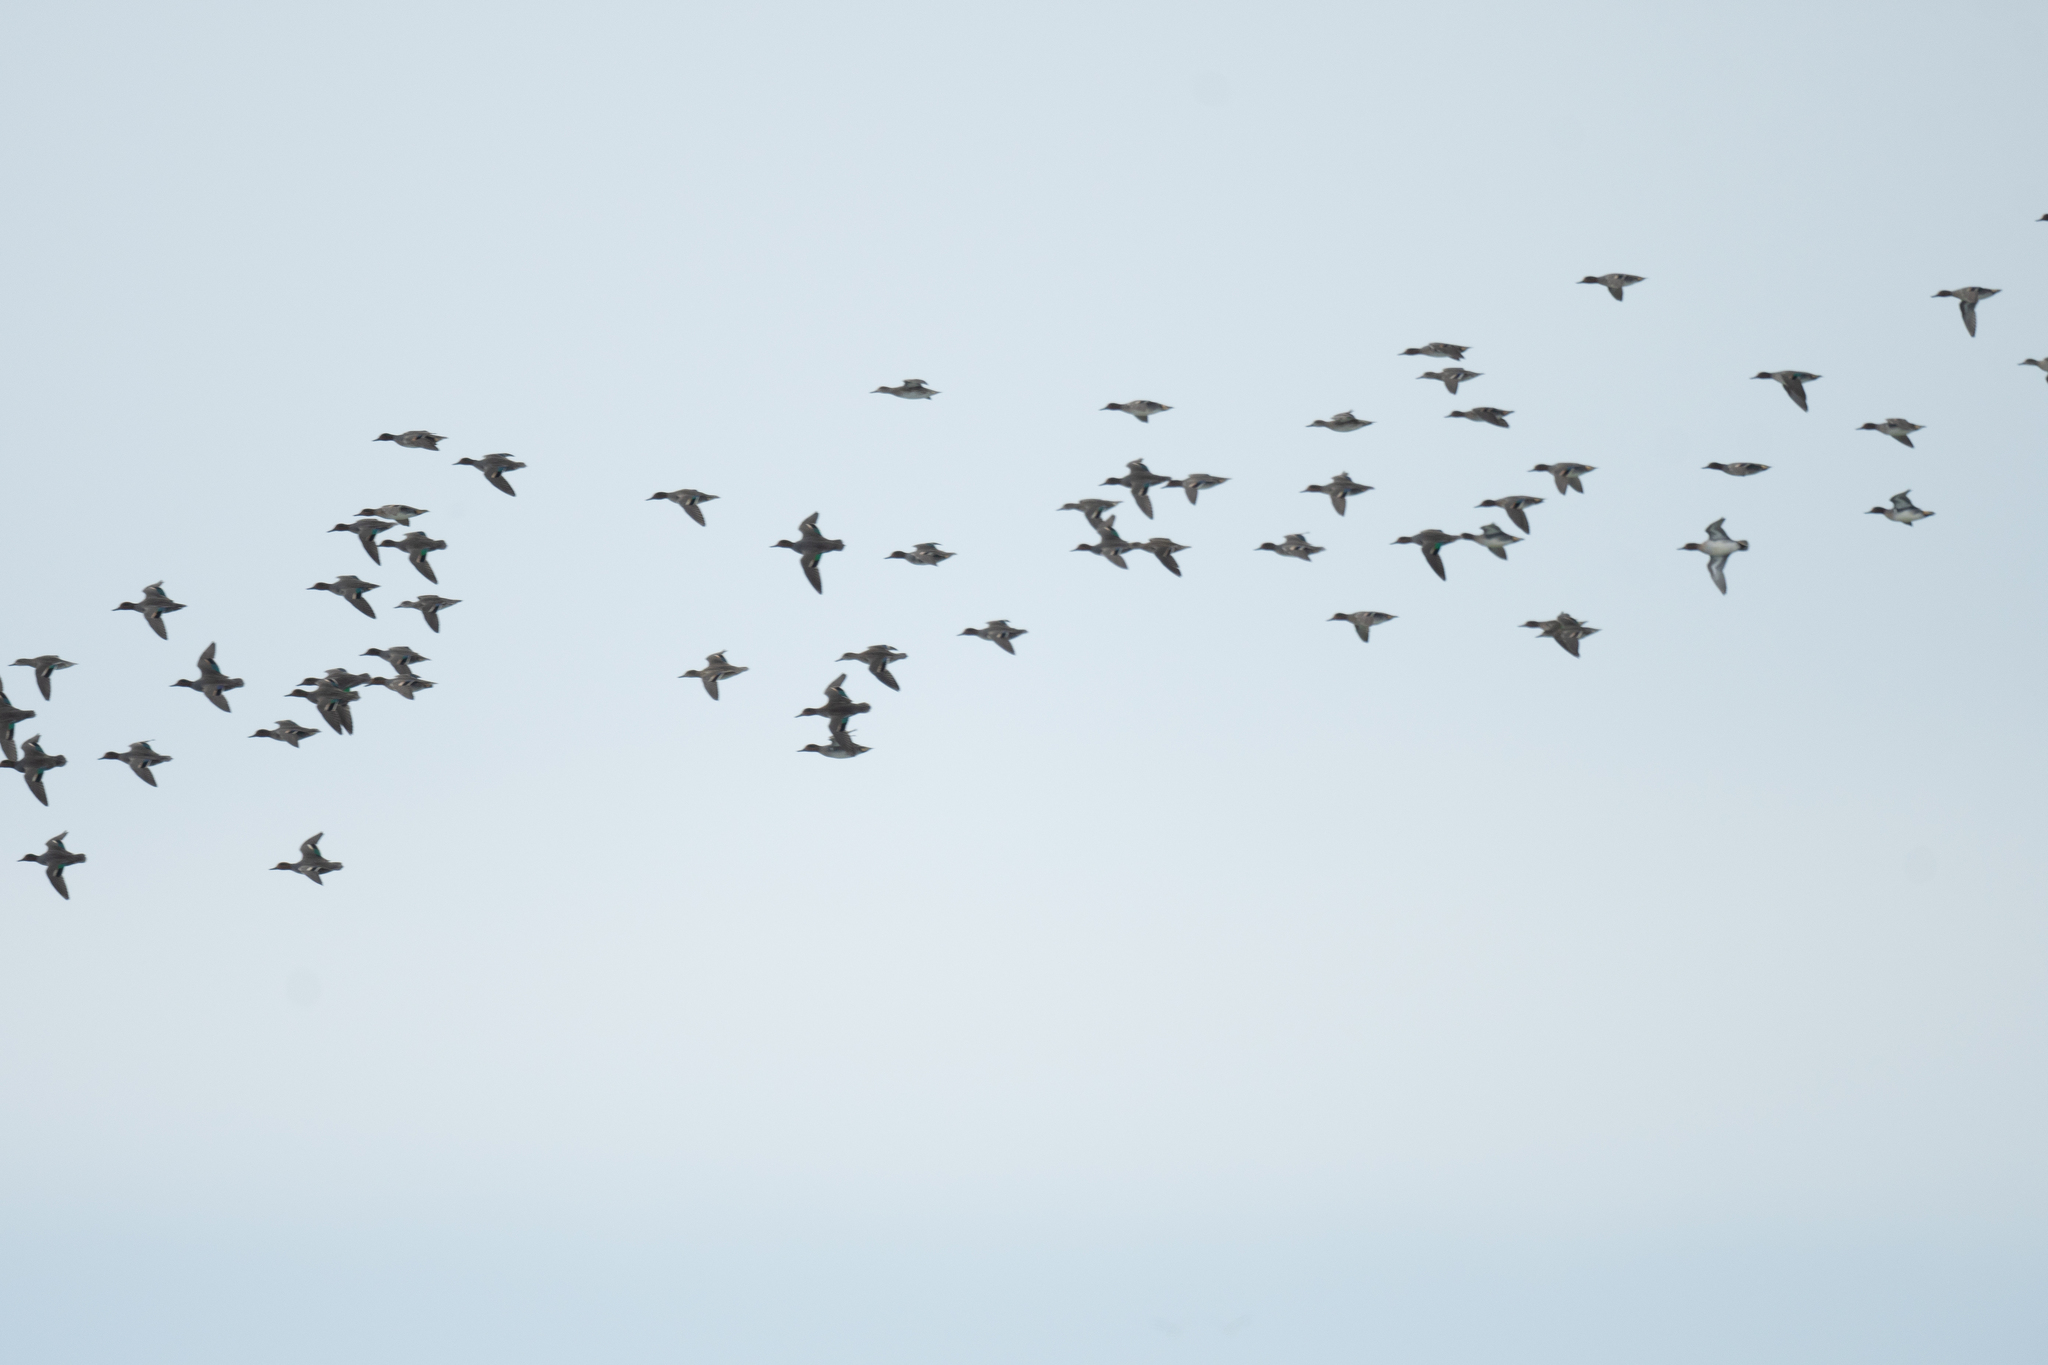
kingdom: Animalia
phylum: Chordata
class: Aves
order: Anseriformes
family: Anatidae
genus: Anas
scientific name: Anas crecca
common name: Eurasian teal
